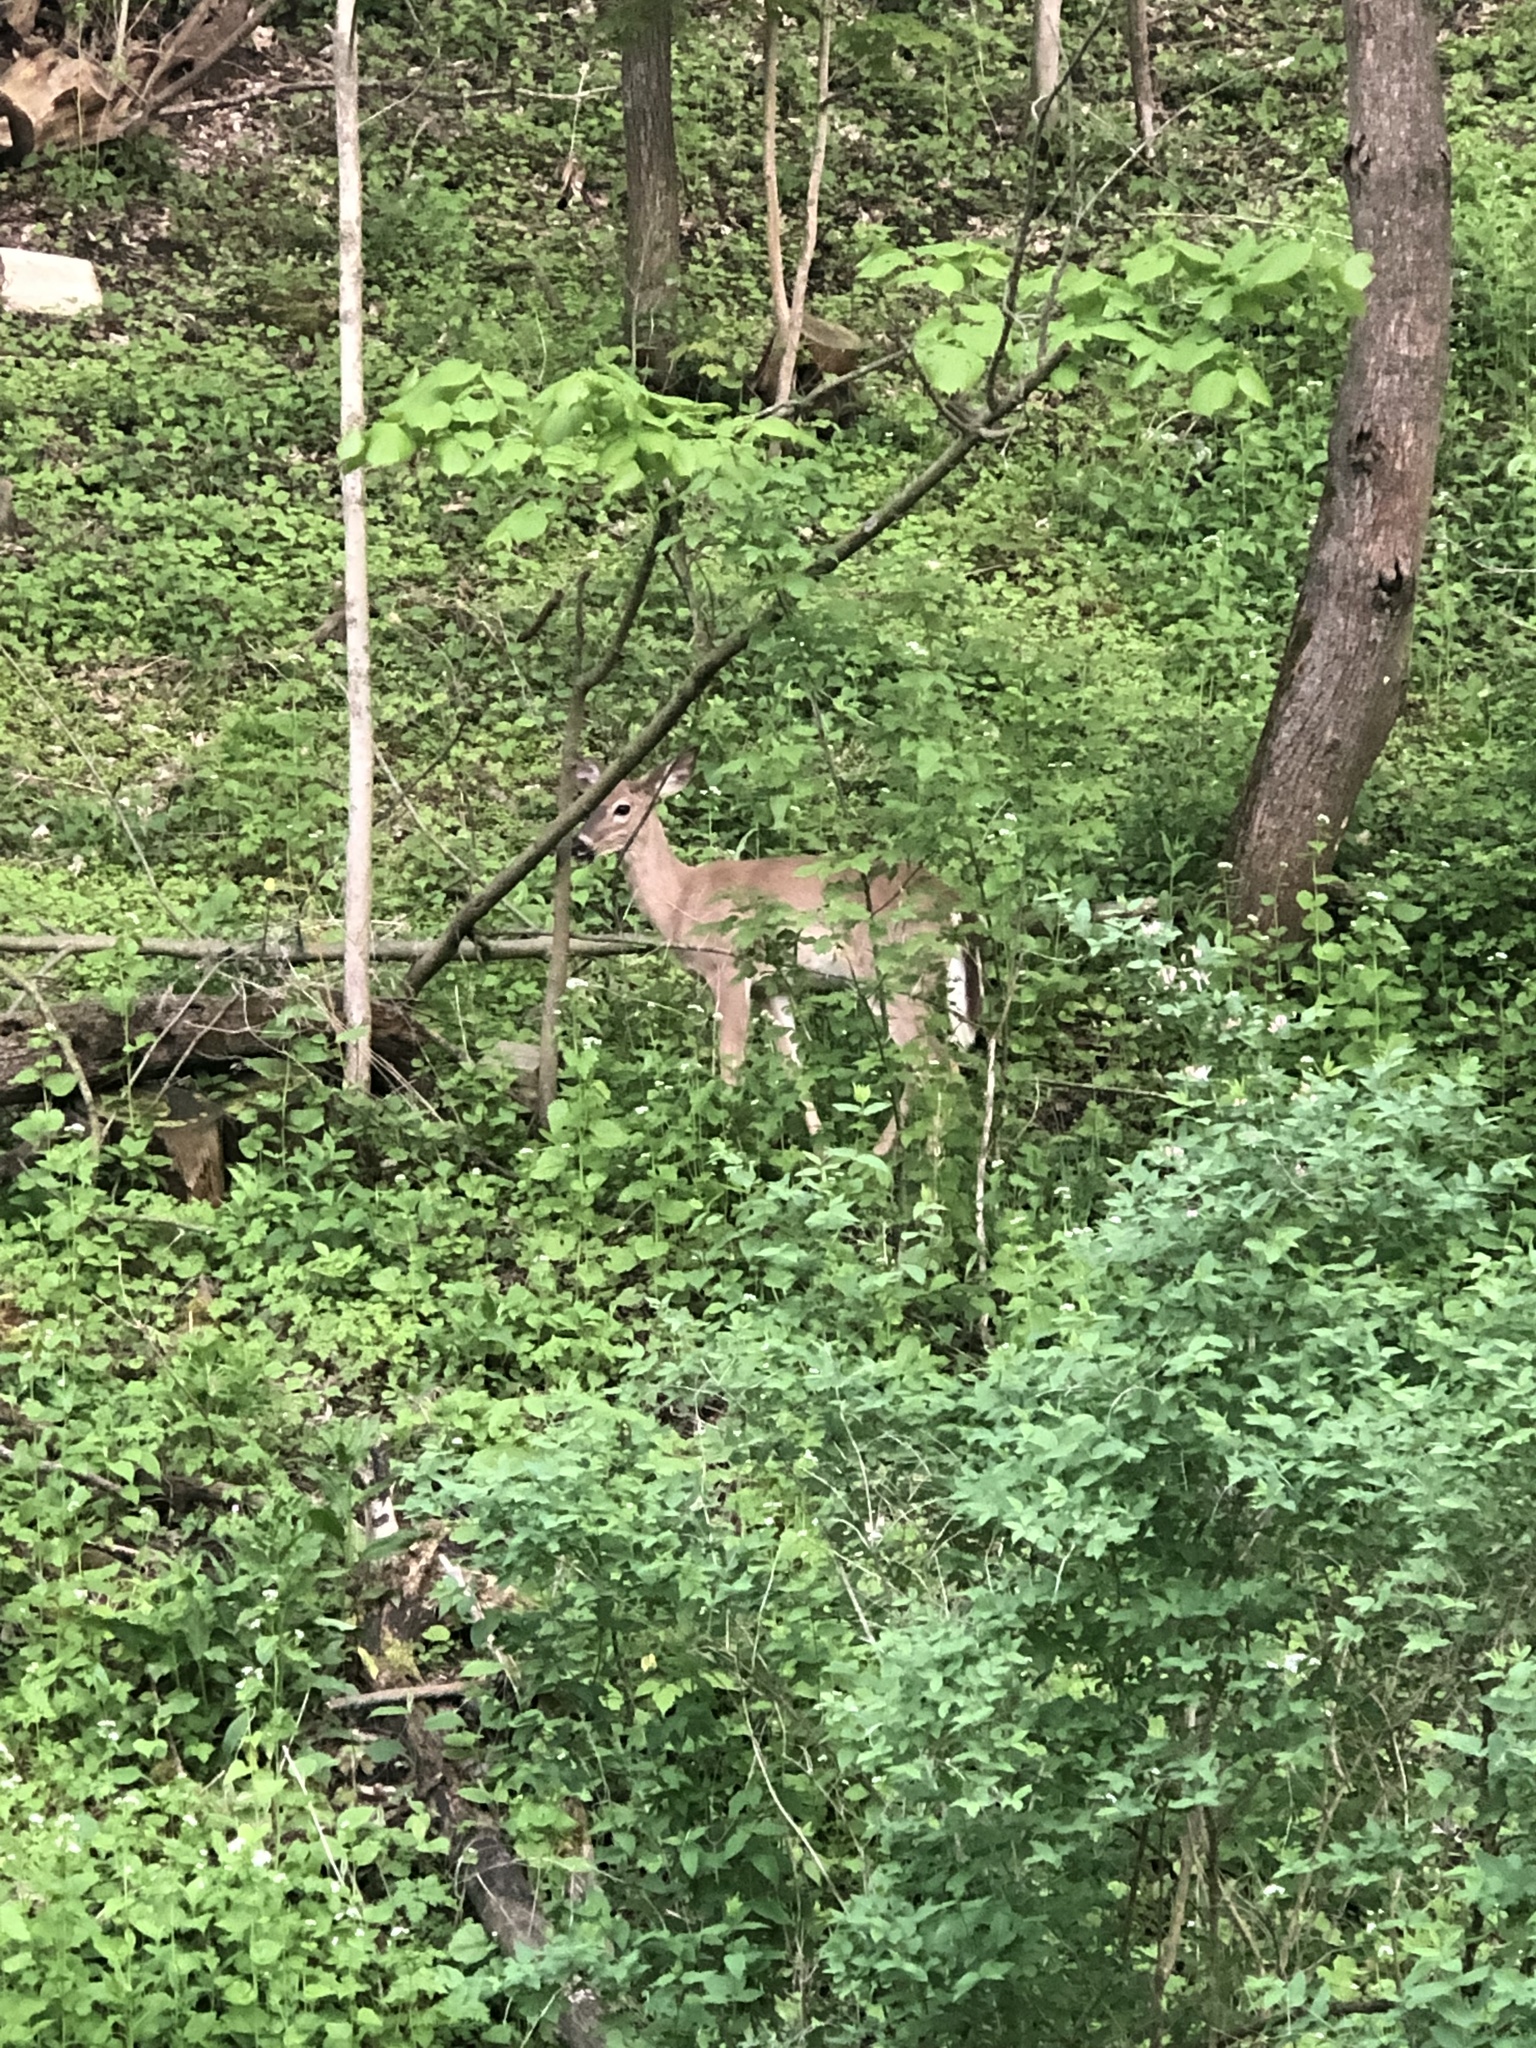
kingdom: Animalia
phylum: Chordata
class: Mammalia
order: Artiodactyla
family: Cervidae
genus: Odocoileus
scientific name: Odocoileus virginianus
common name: White-tailed deer
